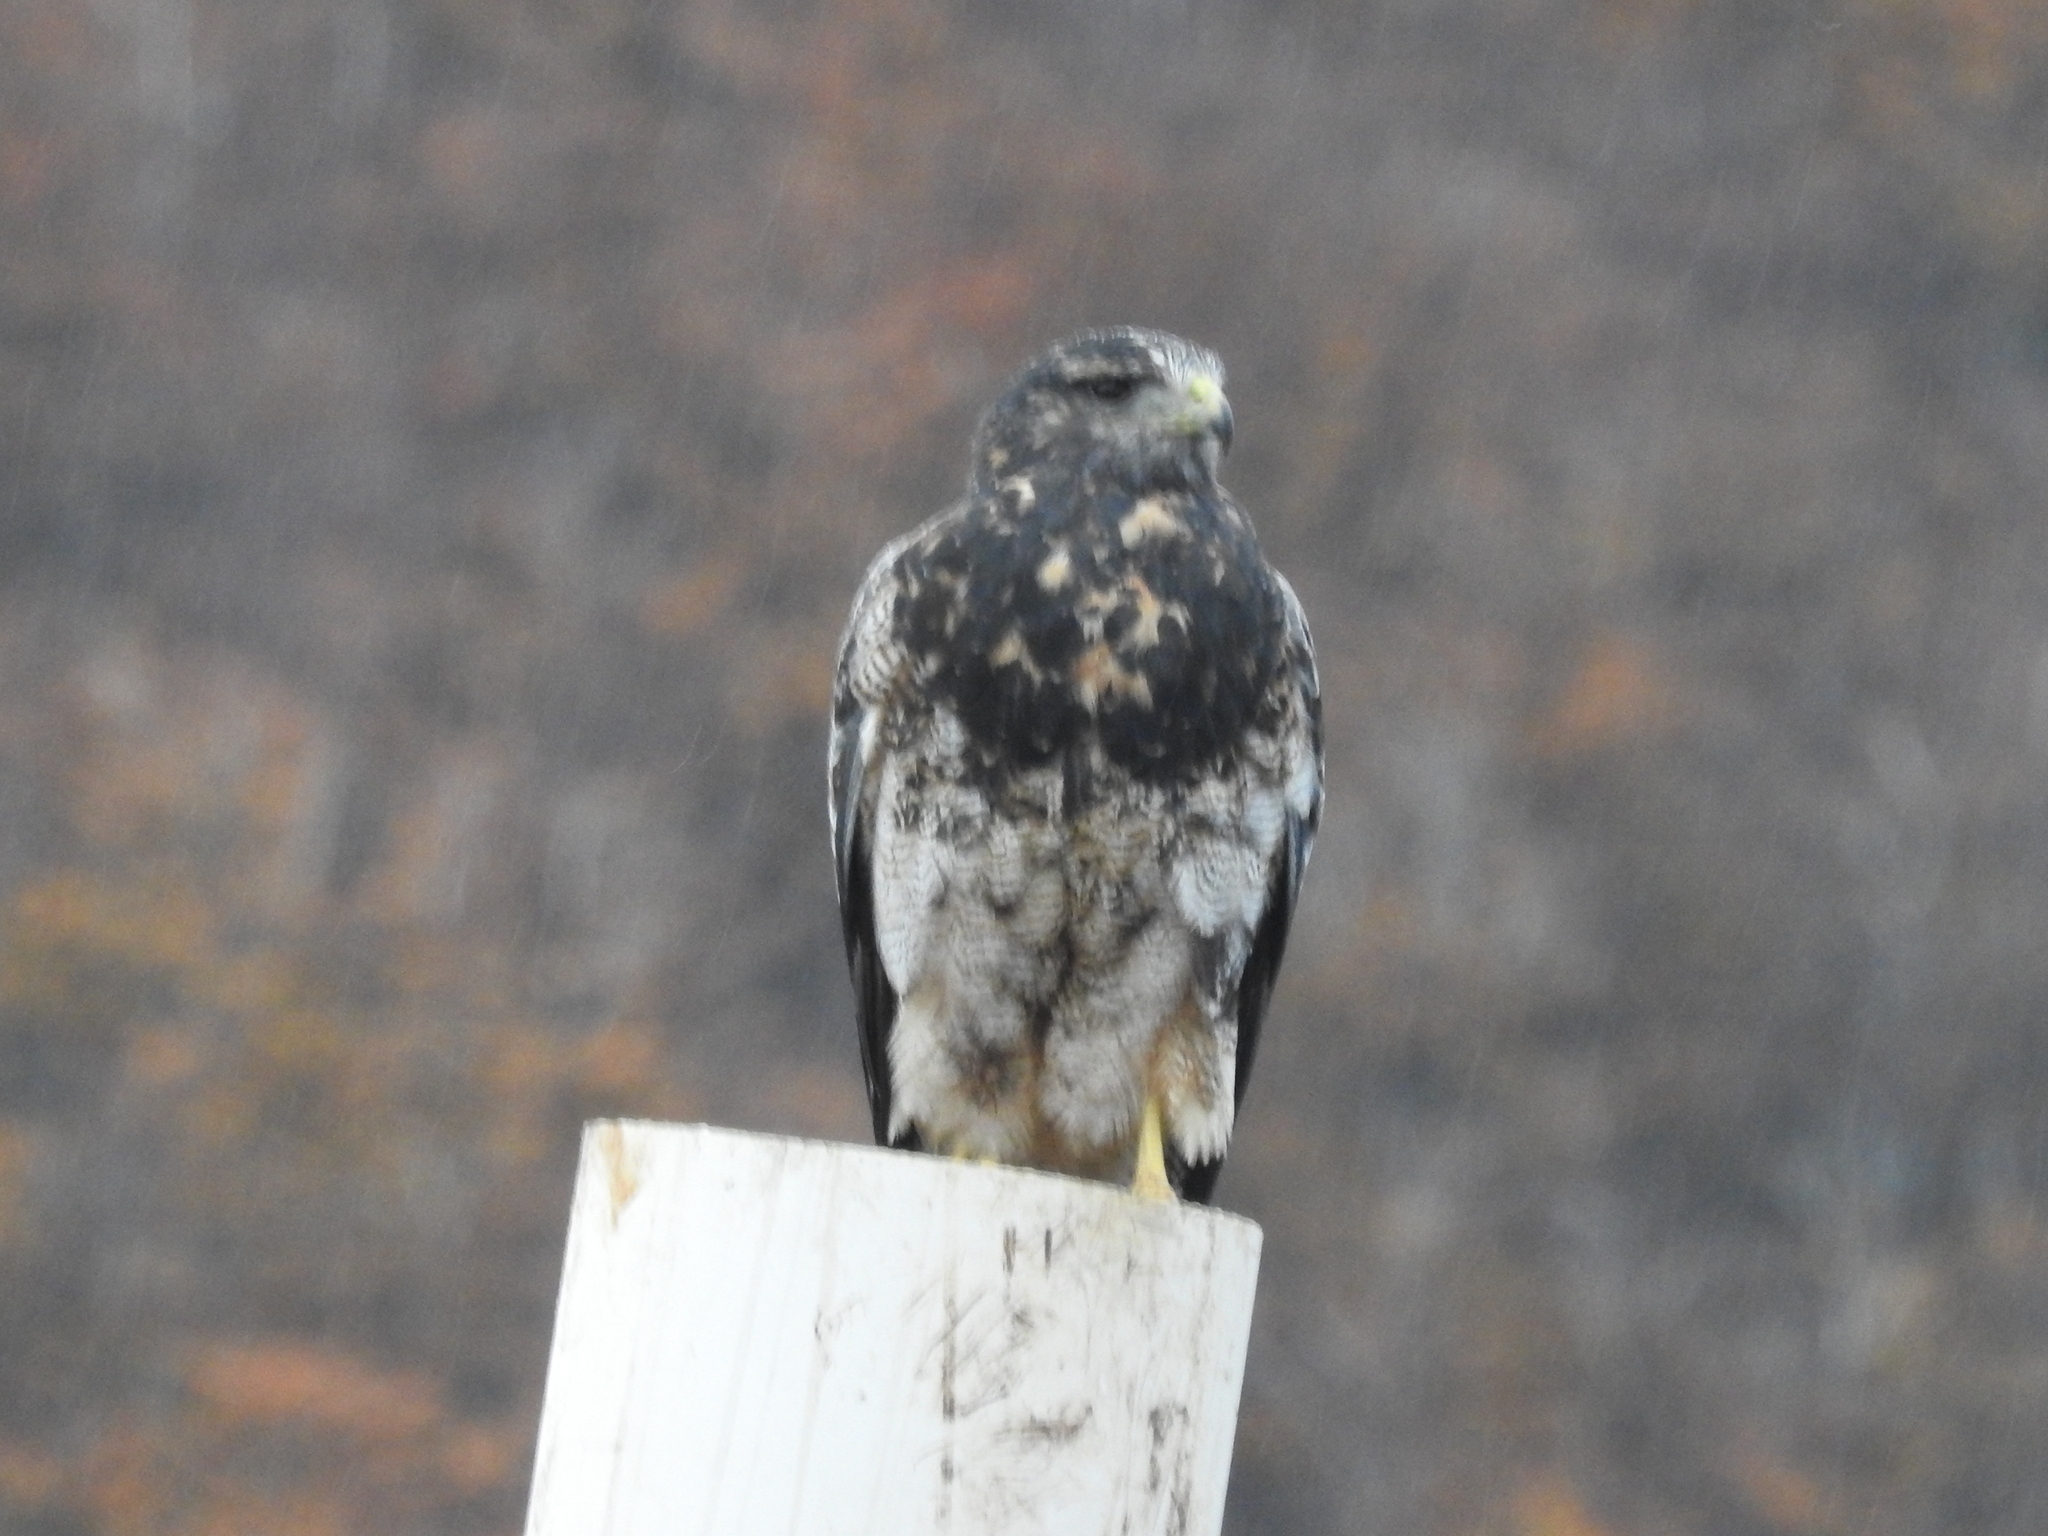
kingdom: Animalia
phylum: Chordata
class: Aves
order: Accipitriformes
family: Accipitridae
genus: Geranoaetus
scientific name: Geranoaetus melanoleucus
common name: Black-chested buzzard-eagle
